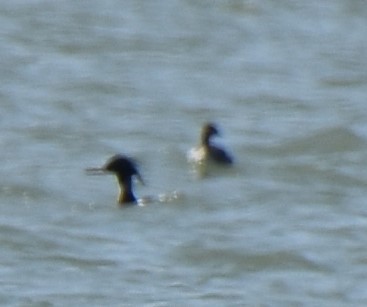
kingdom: Animalia
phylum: Chordata
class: Aves
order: Anseriformes
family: Anatidae
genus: Mergus
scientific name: Mergus serrator
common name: Red-breasted merganser
